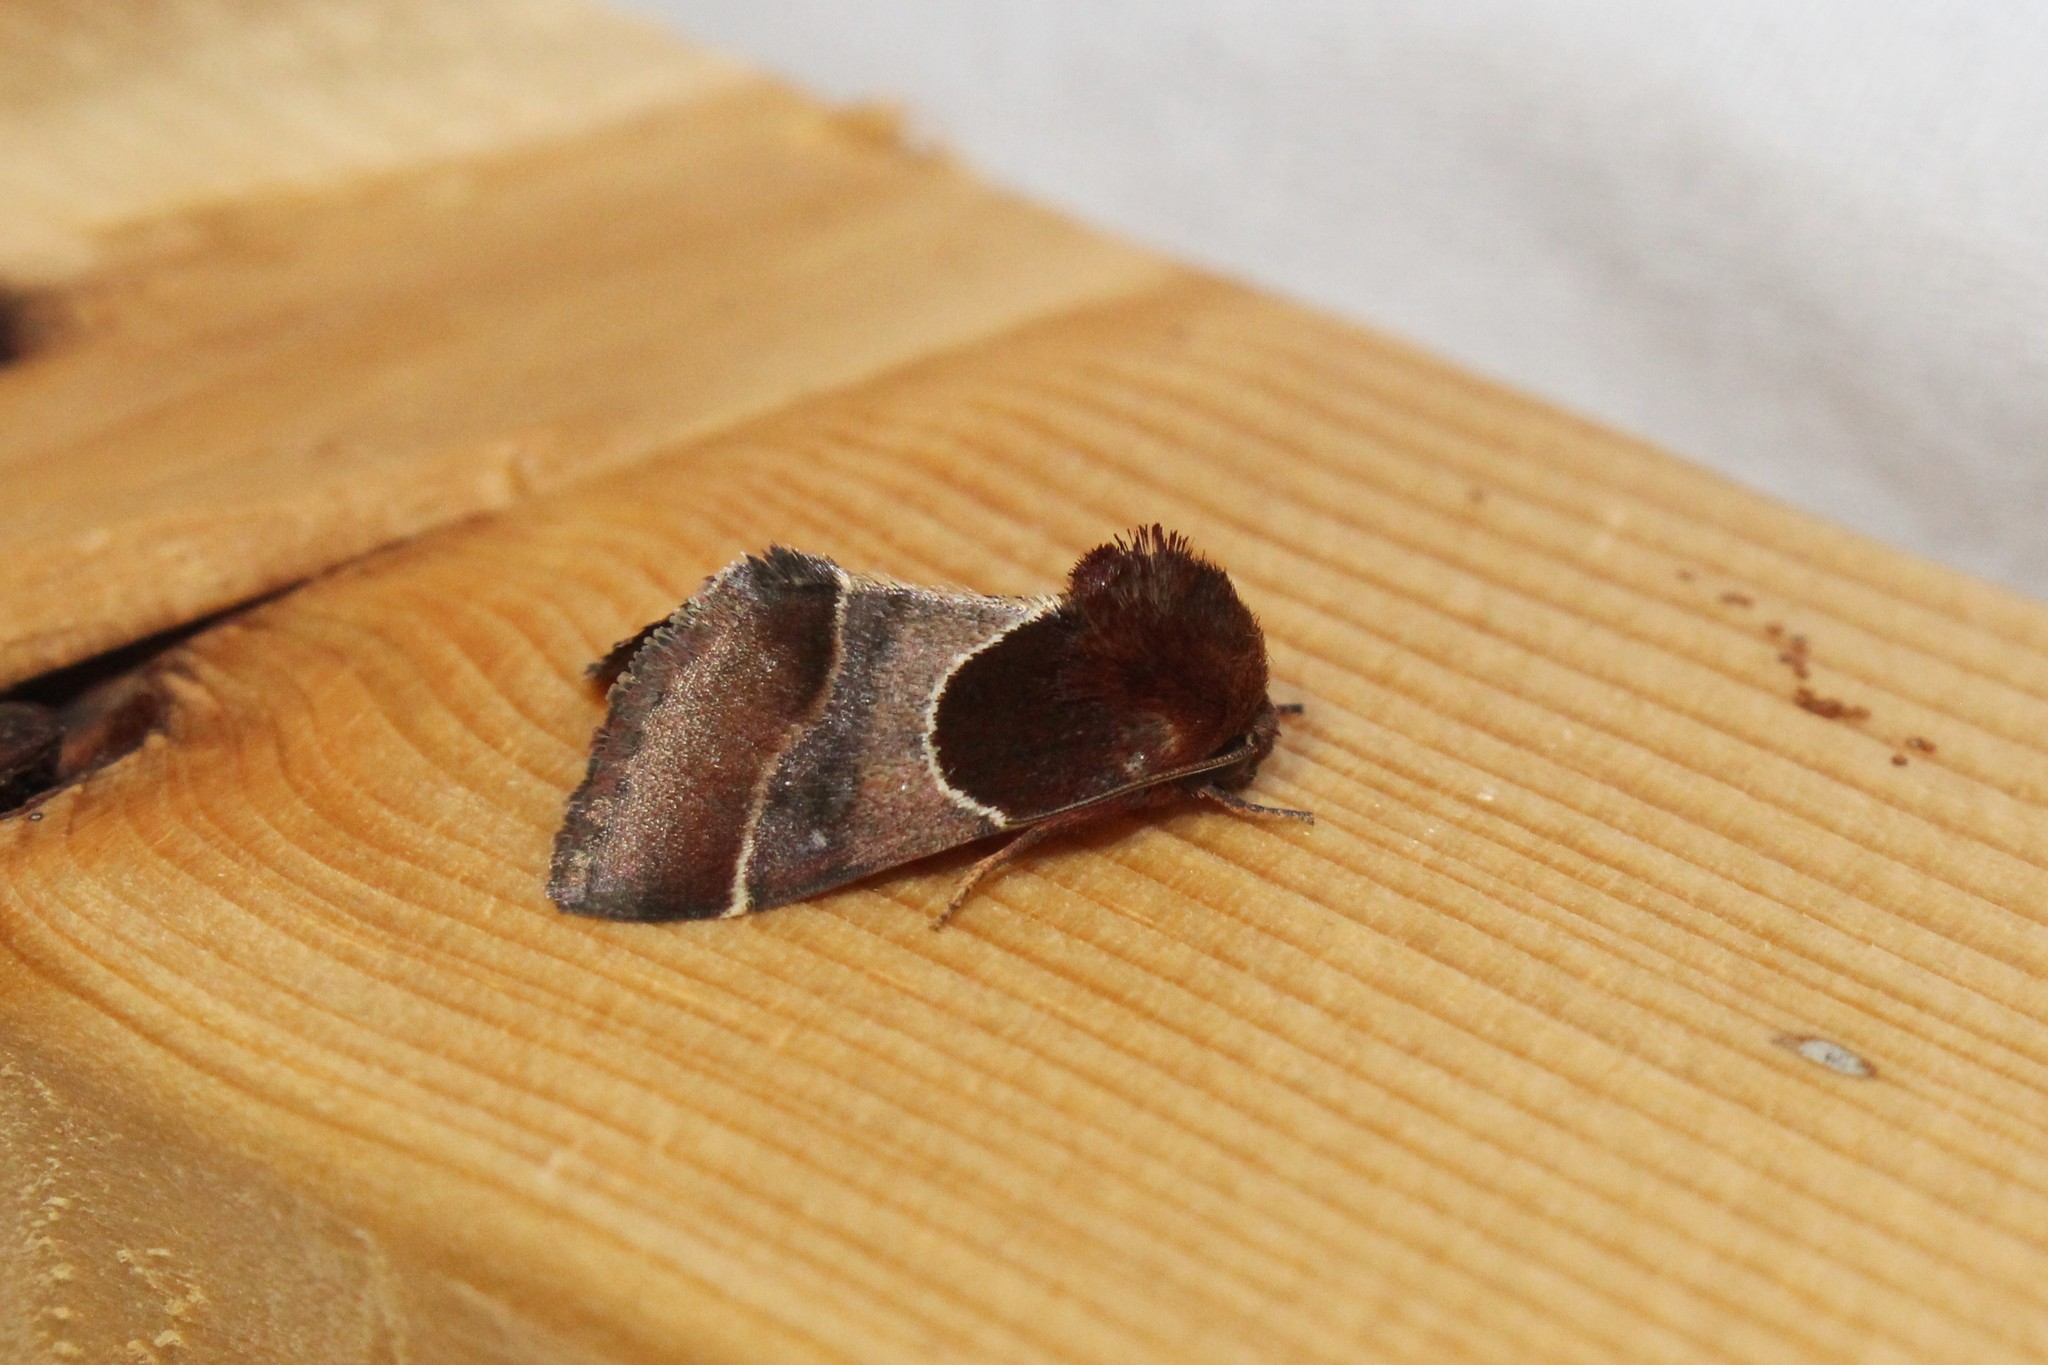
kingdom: Animalia
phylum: Arthropoda
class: Insecta
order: Lepidoptera
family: Noctuidae
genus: Schinia
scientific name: Schinia arcigera
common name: Arcigera flower moth
